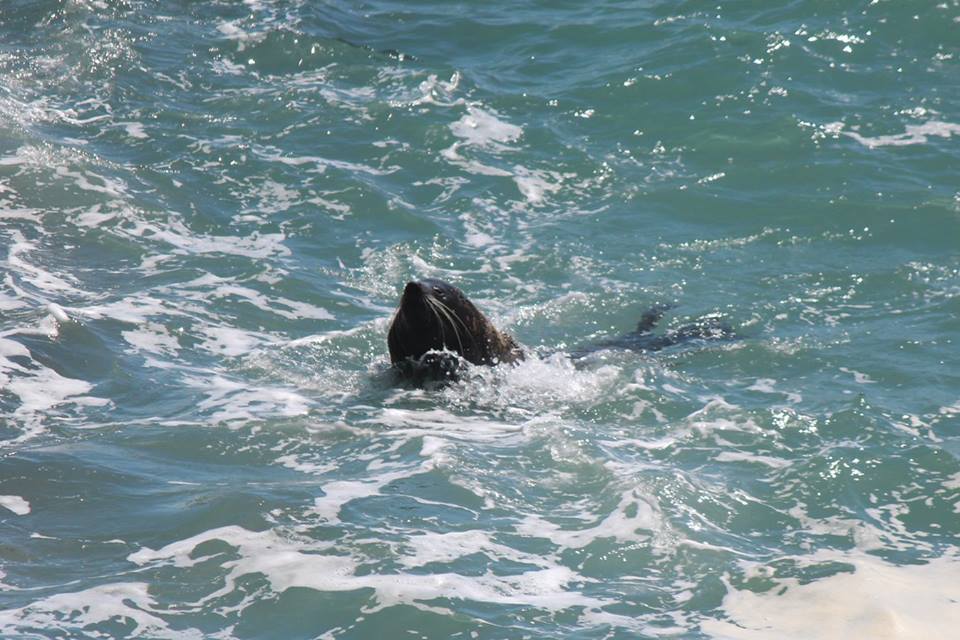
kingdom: Animalia
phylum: Chordata
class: Mammalia
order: Carnivora
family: Otariidae
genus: Arctocephalus
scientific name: Arctocephalus forsteri
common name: New zealand fur seal
